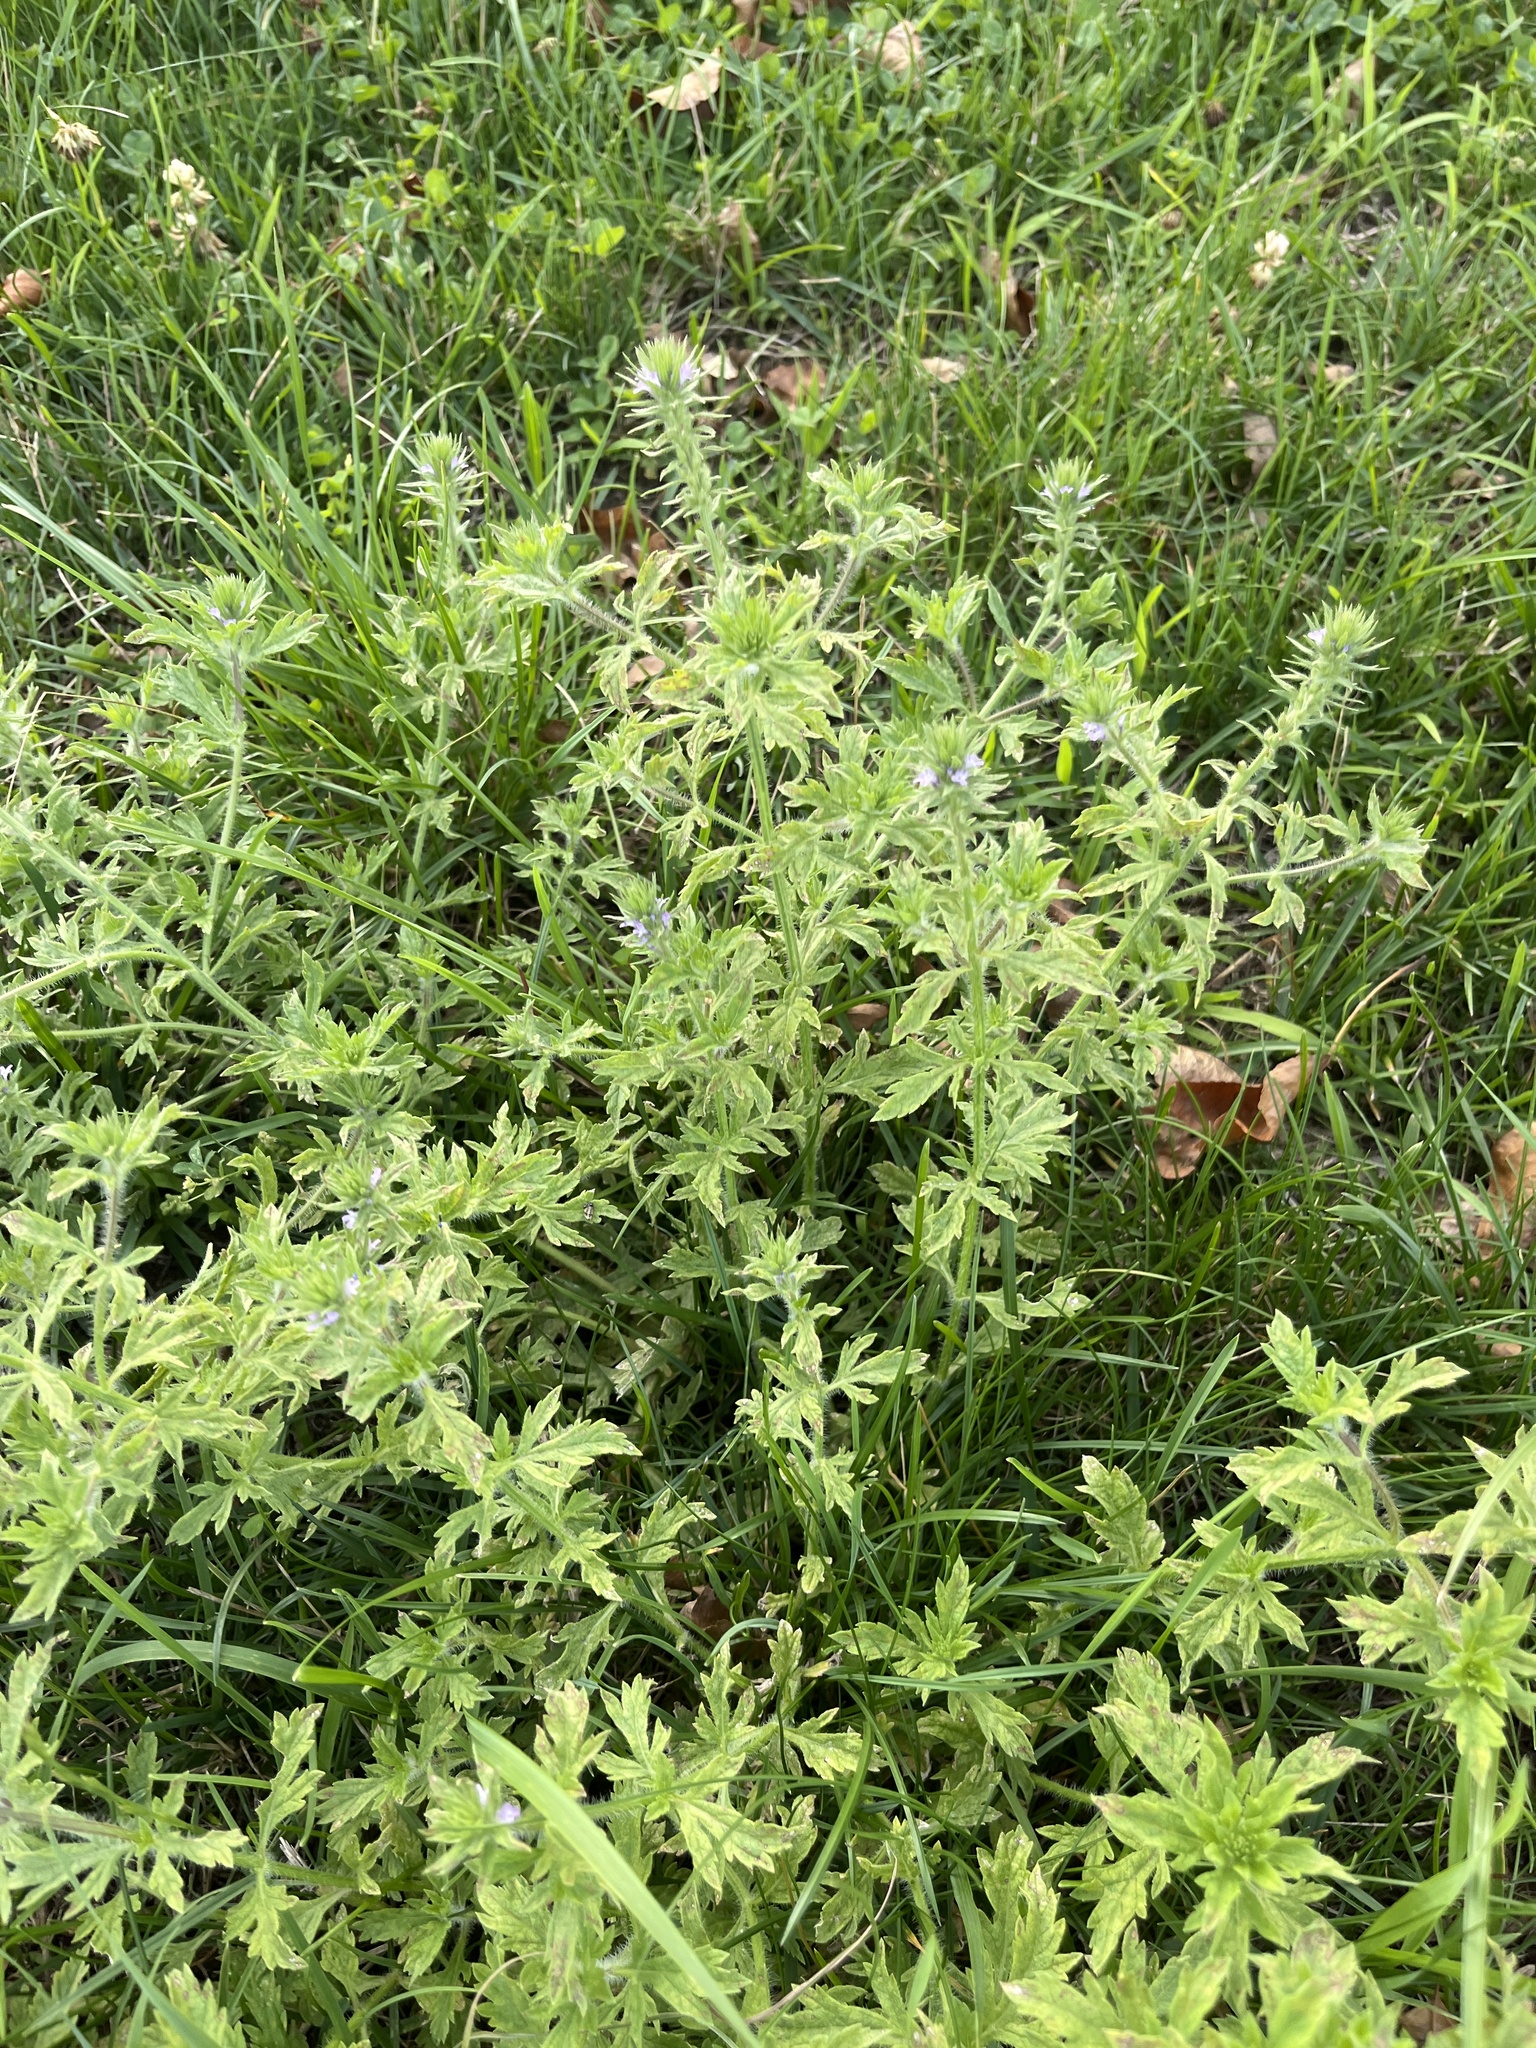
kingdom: Plantae
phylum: Tracheophyta
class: Magnoliopsida
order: Lamiales
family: Verbenaceae
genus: Verbena
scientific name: Verbena bracteata
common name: Bracted vervain
